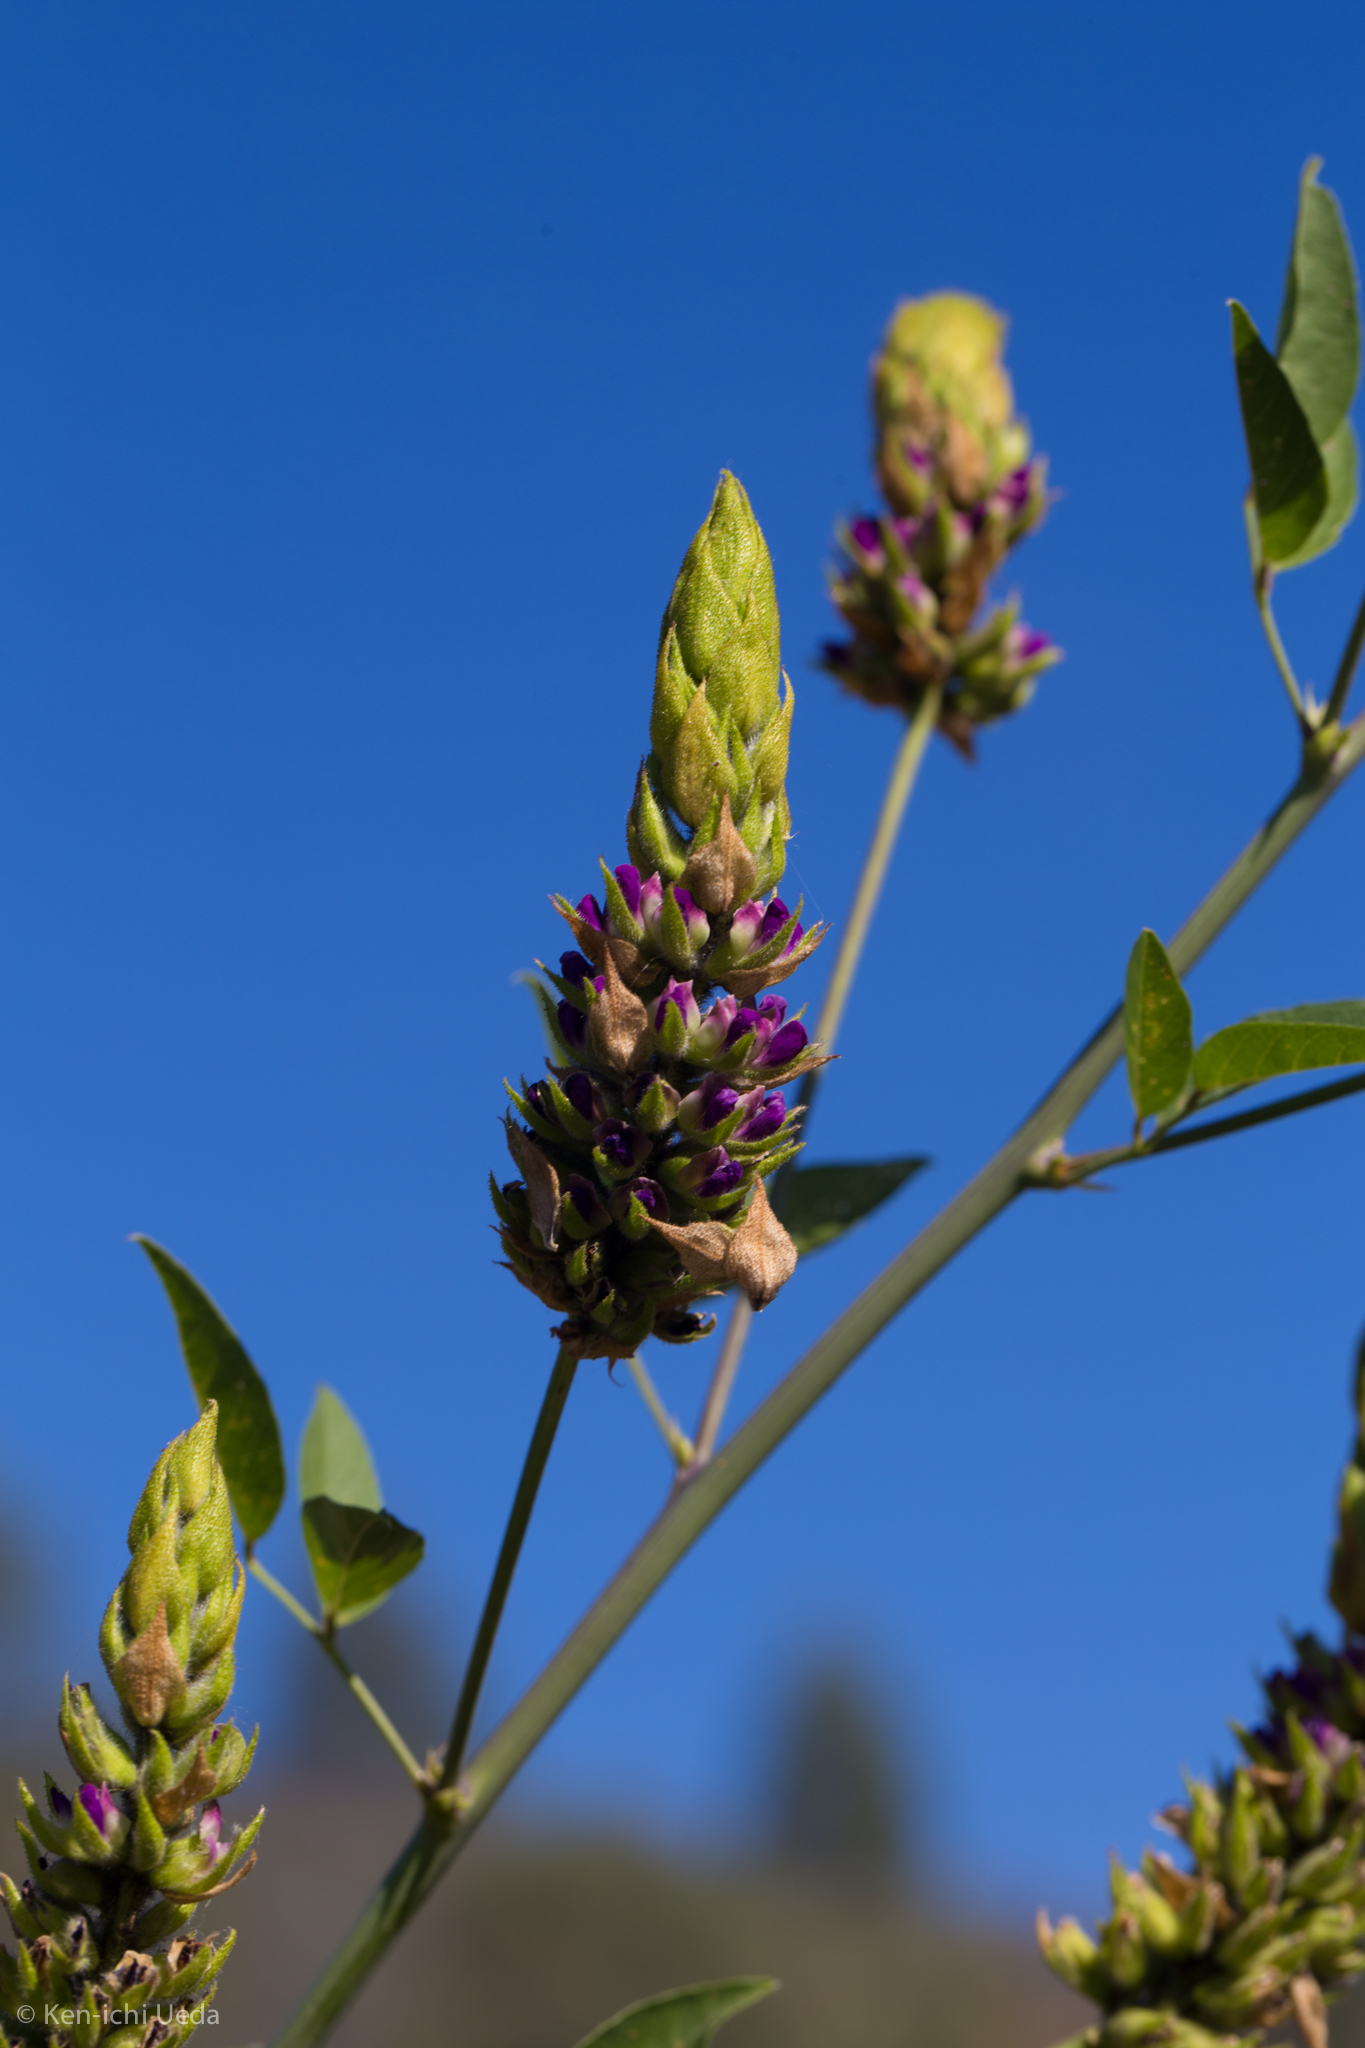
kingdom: Plantae
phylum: Tracheophyta
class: Magnoliopsida
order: Fabales
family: Fabaceae
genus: Hoita
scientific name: Hoita macrostachya
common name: Leatherroot
